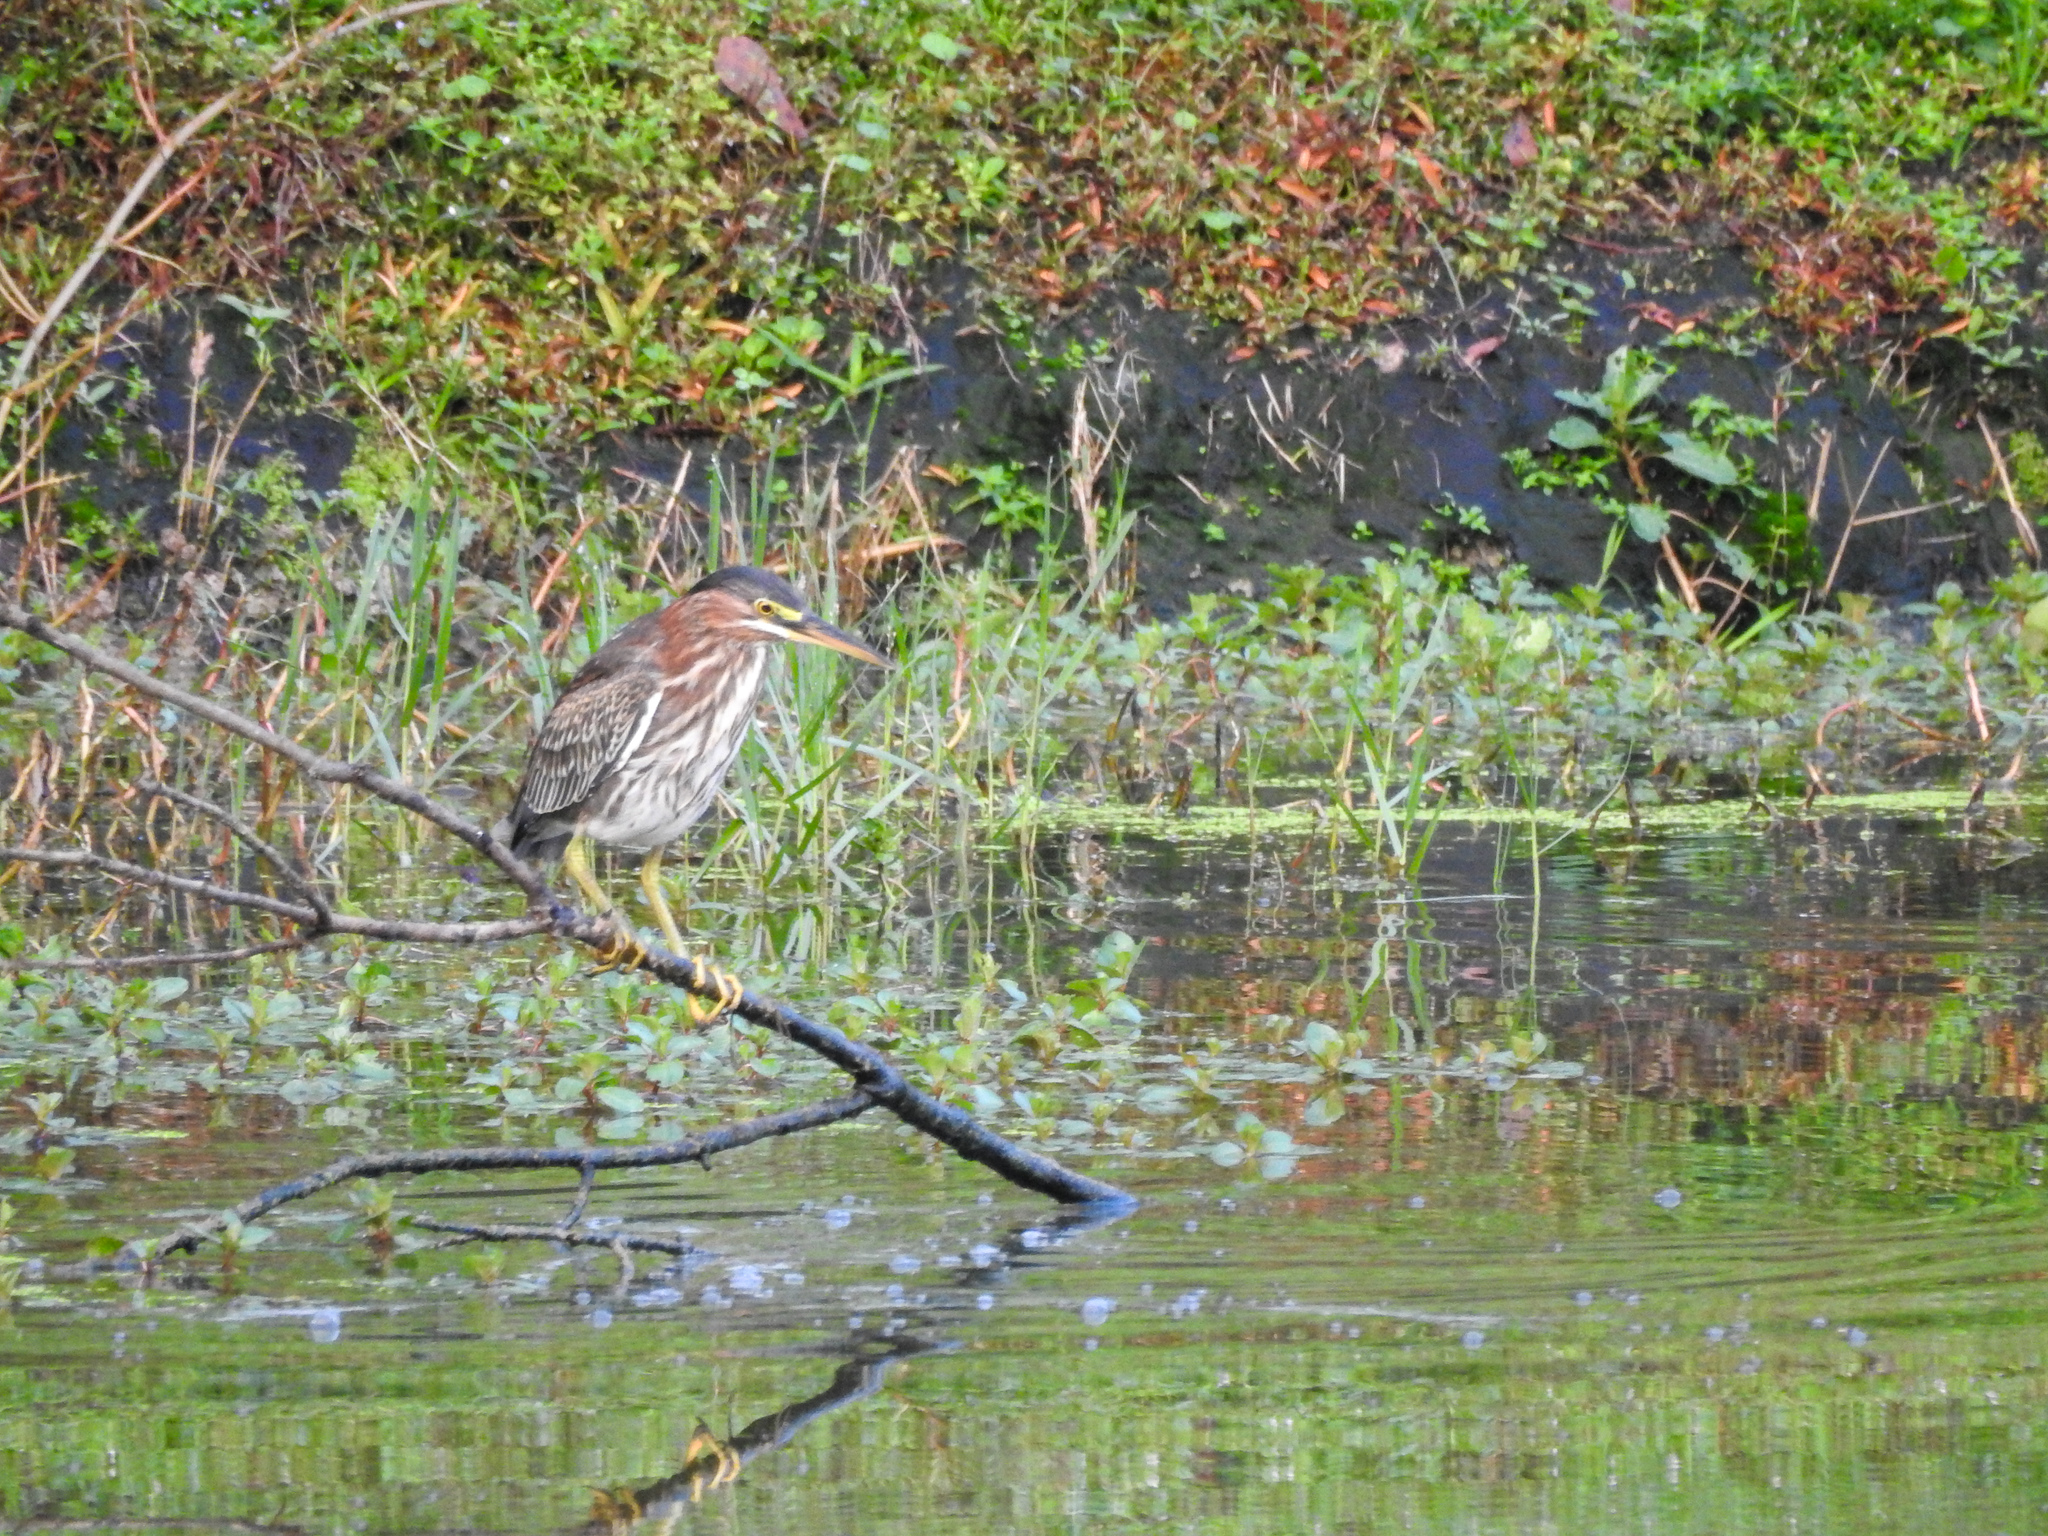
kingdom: Animalia
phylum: Chordata
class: Aves
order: Pelecaniformes
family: Ardeidae
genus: Butorides
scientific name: Butorides virescens
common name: Green heron
